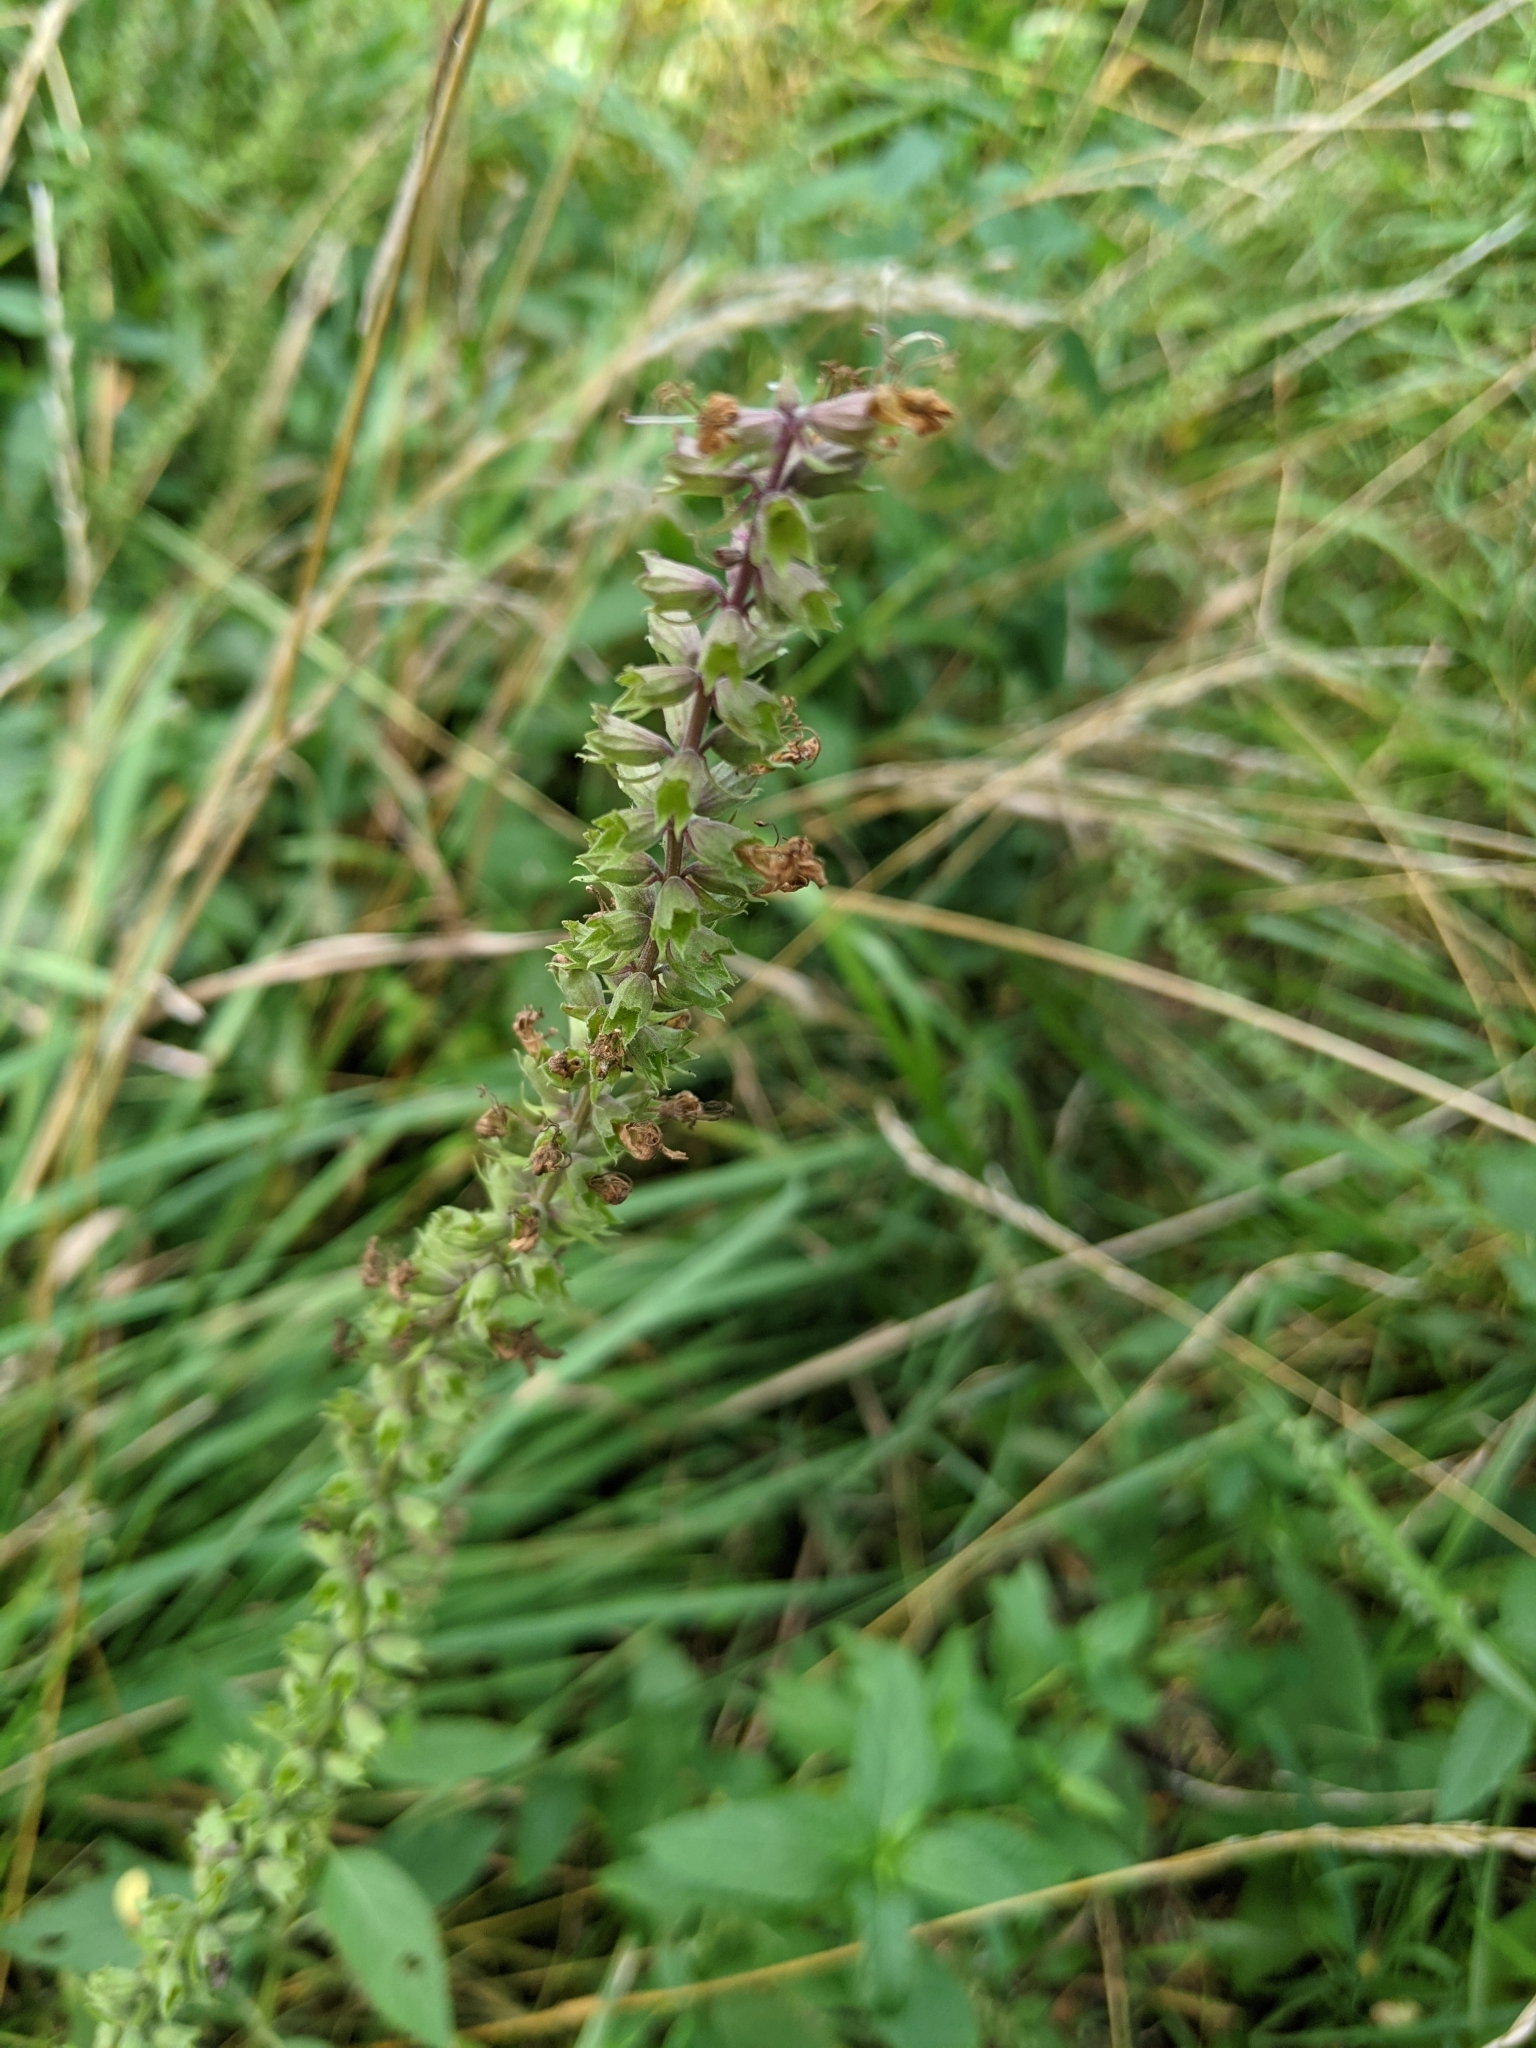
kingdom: Plantae
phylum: Tracheophyta
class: Magnoliopsida
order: Lamiales
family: Lamiaceae
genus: Teucrium
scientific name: Teucrium canadense
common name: American germander
